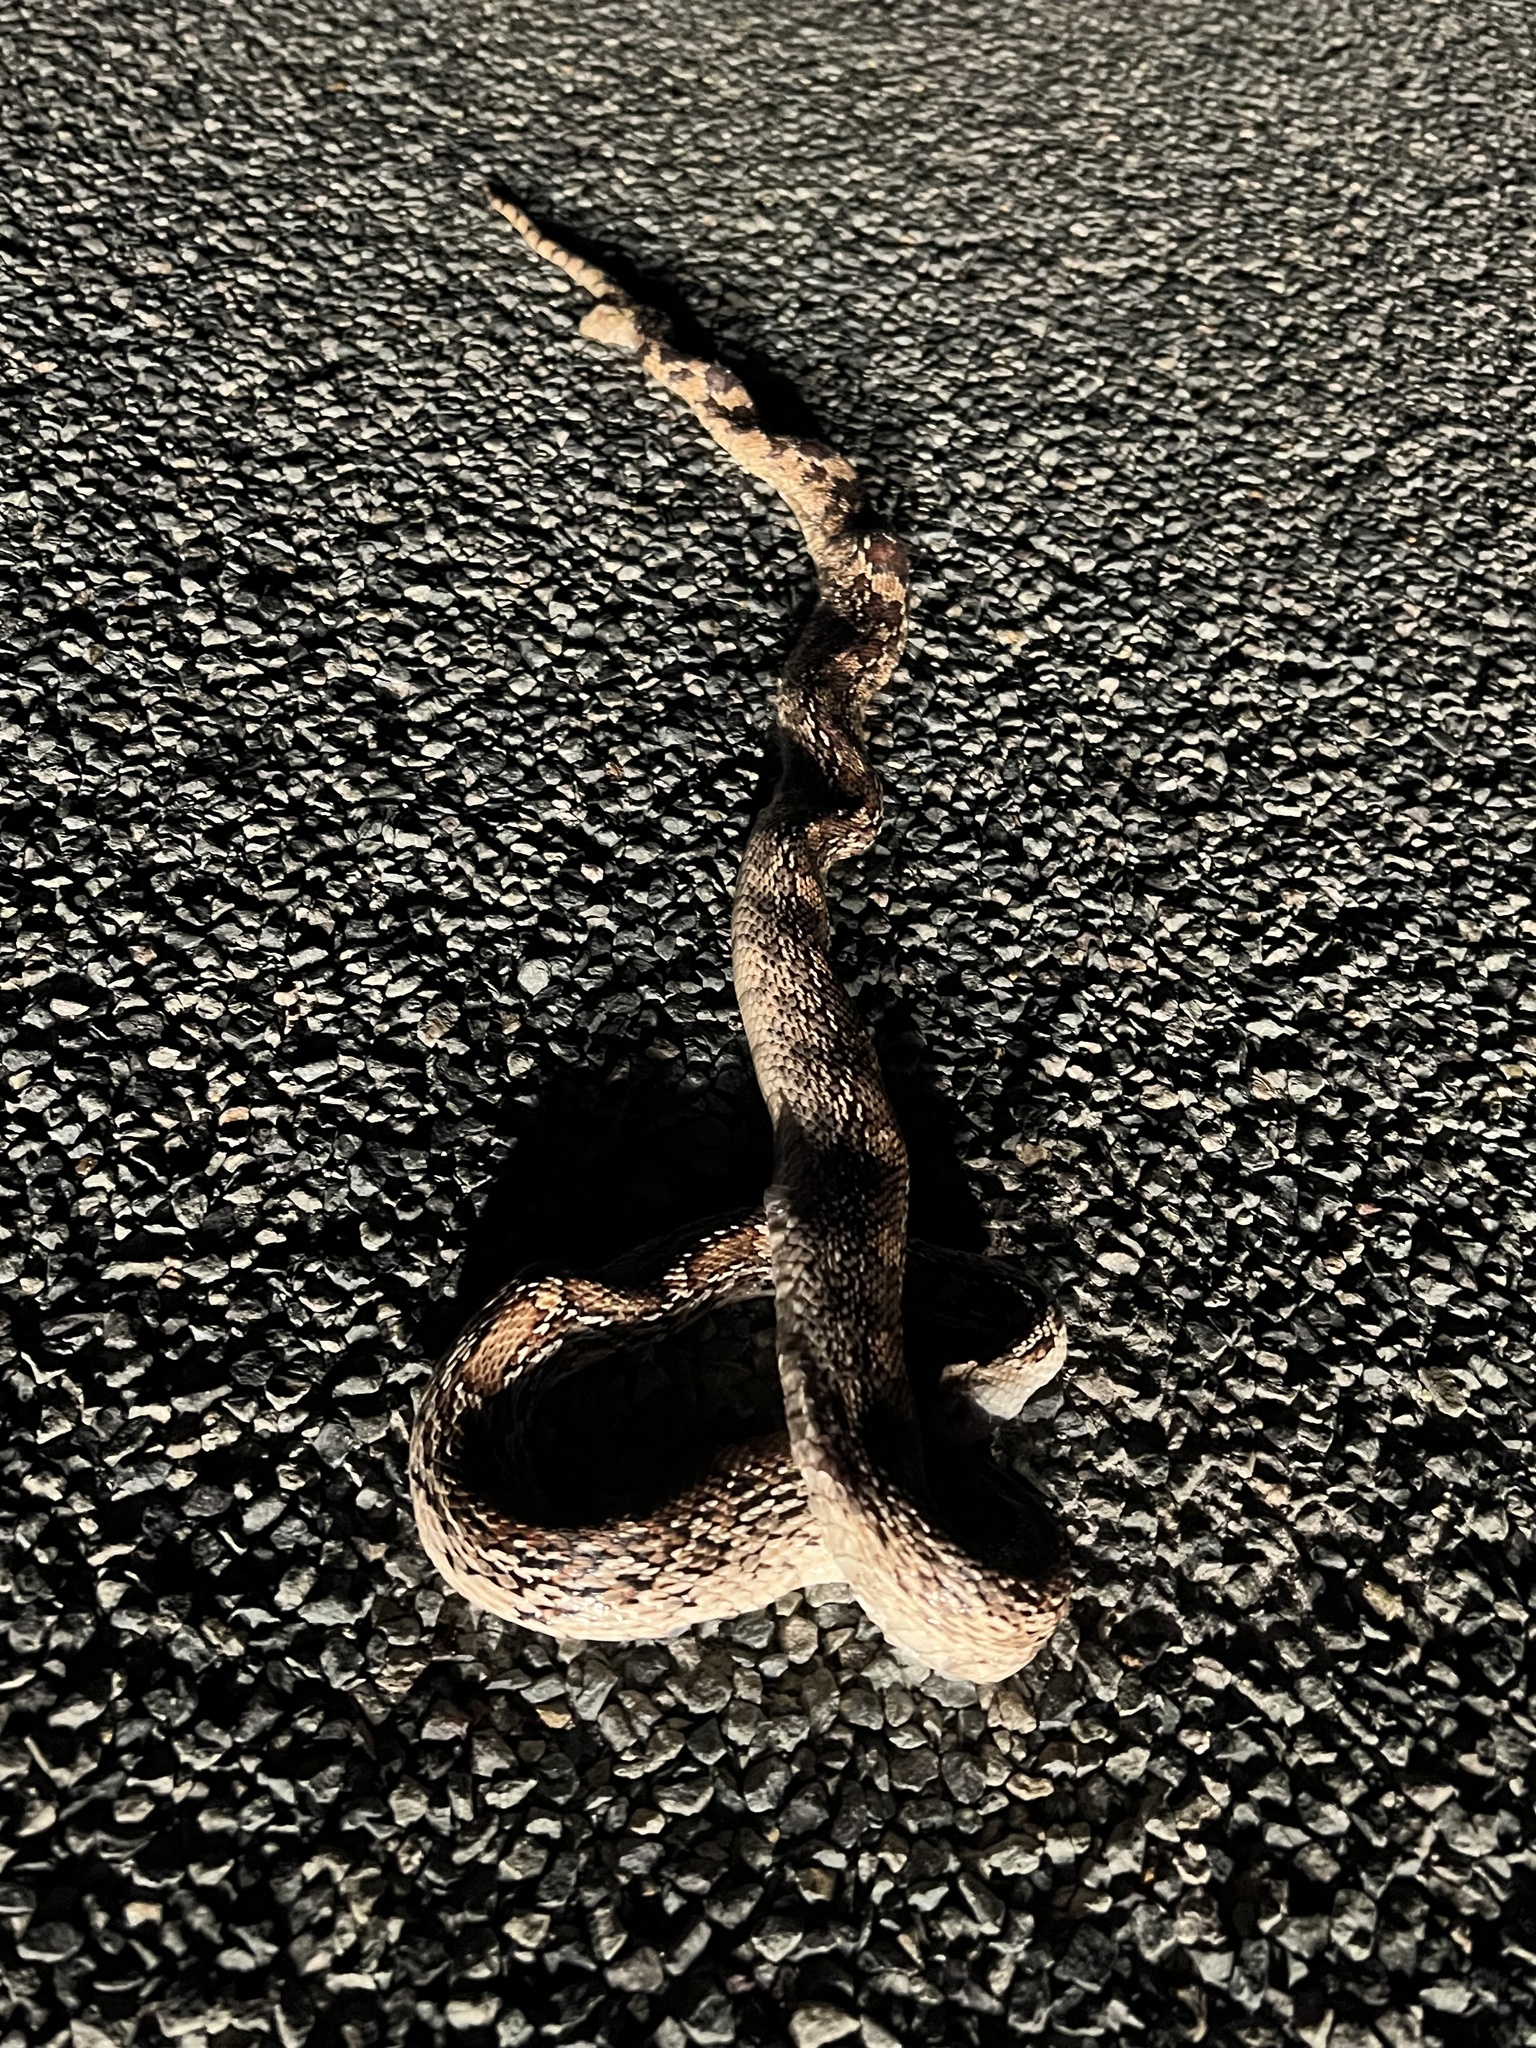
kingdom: Animalia
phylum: Chordata
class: Squamata
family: Colubridae
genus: Pituophis
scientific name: Pituophis catenifer
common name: Gopher snake
